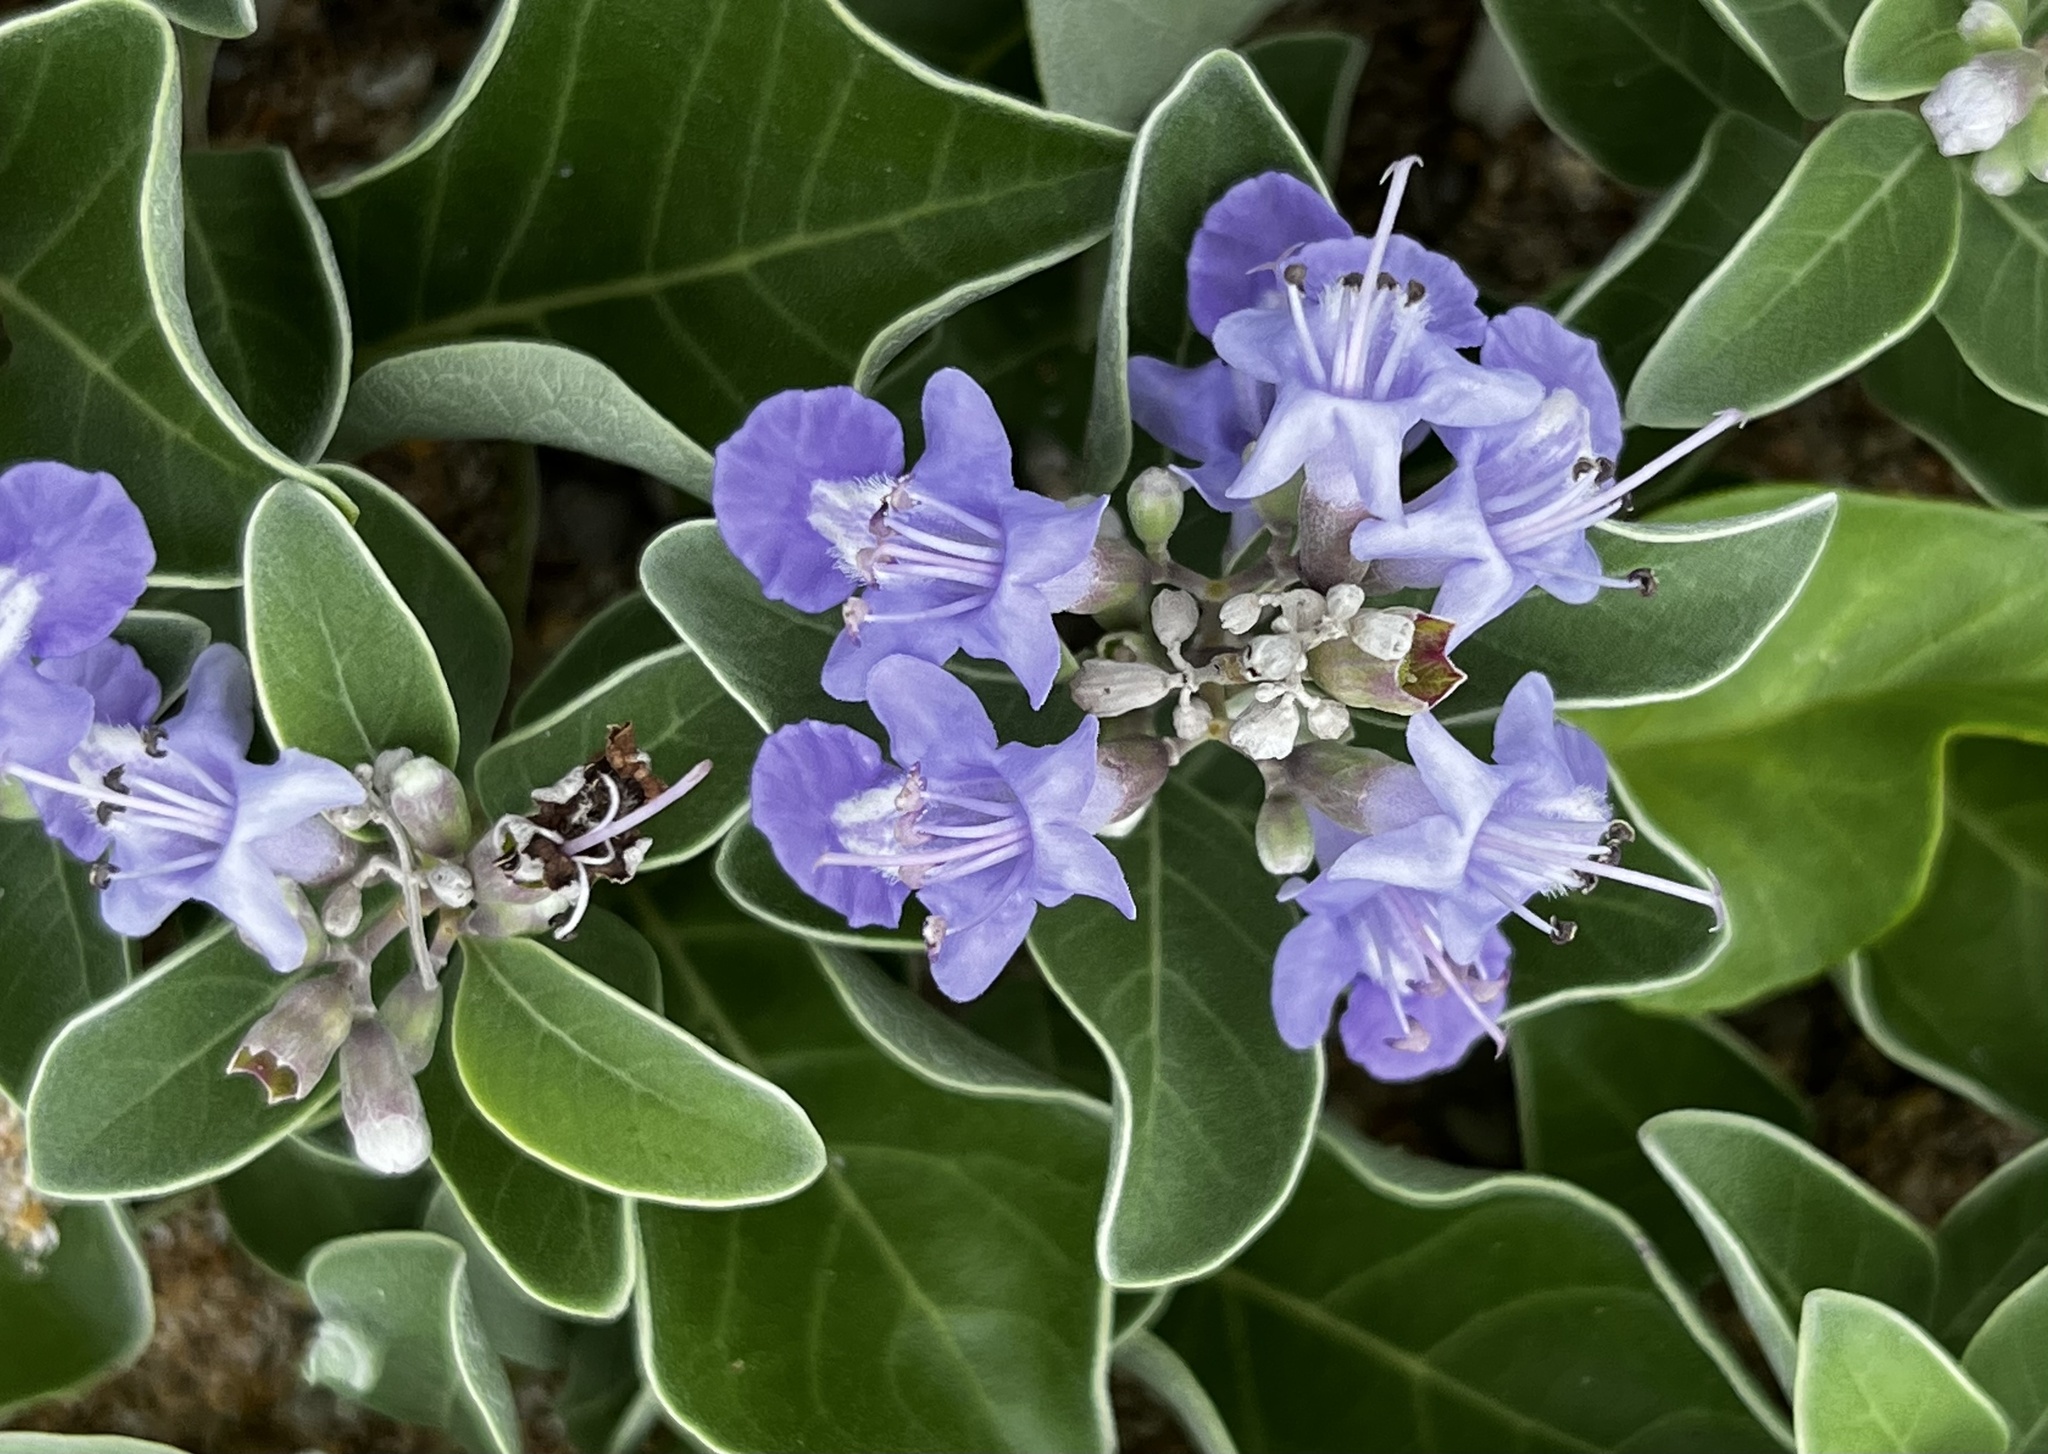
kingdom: Plantae
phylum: Tracheophyta
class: Magnoliopsida
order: Lamiales
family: Lamiaceae
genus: Vitex
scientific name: Vitex rotundifolia
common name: Beach vitex
